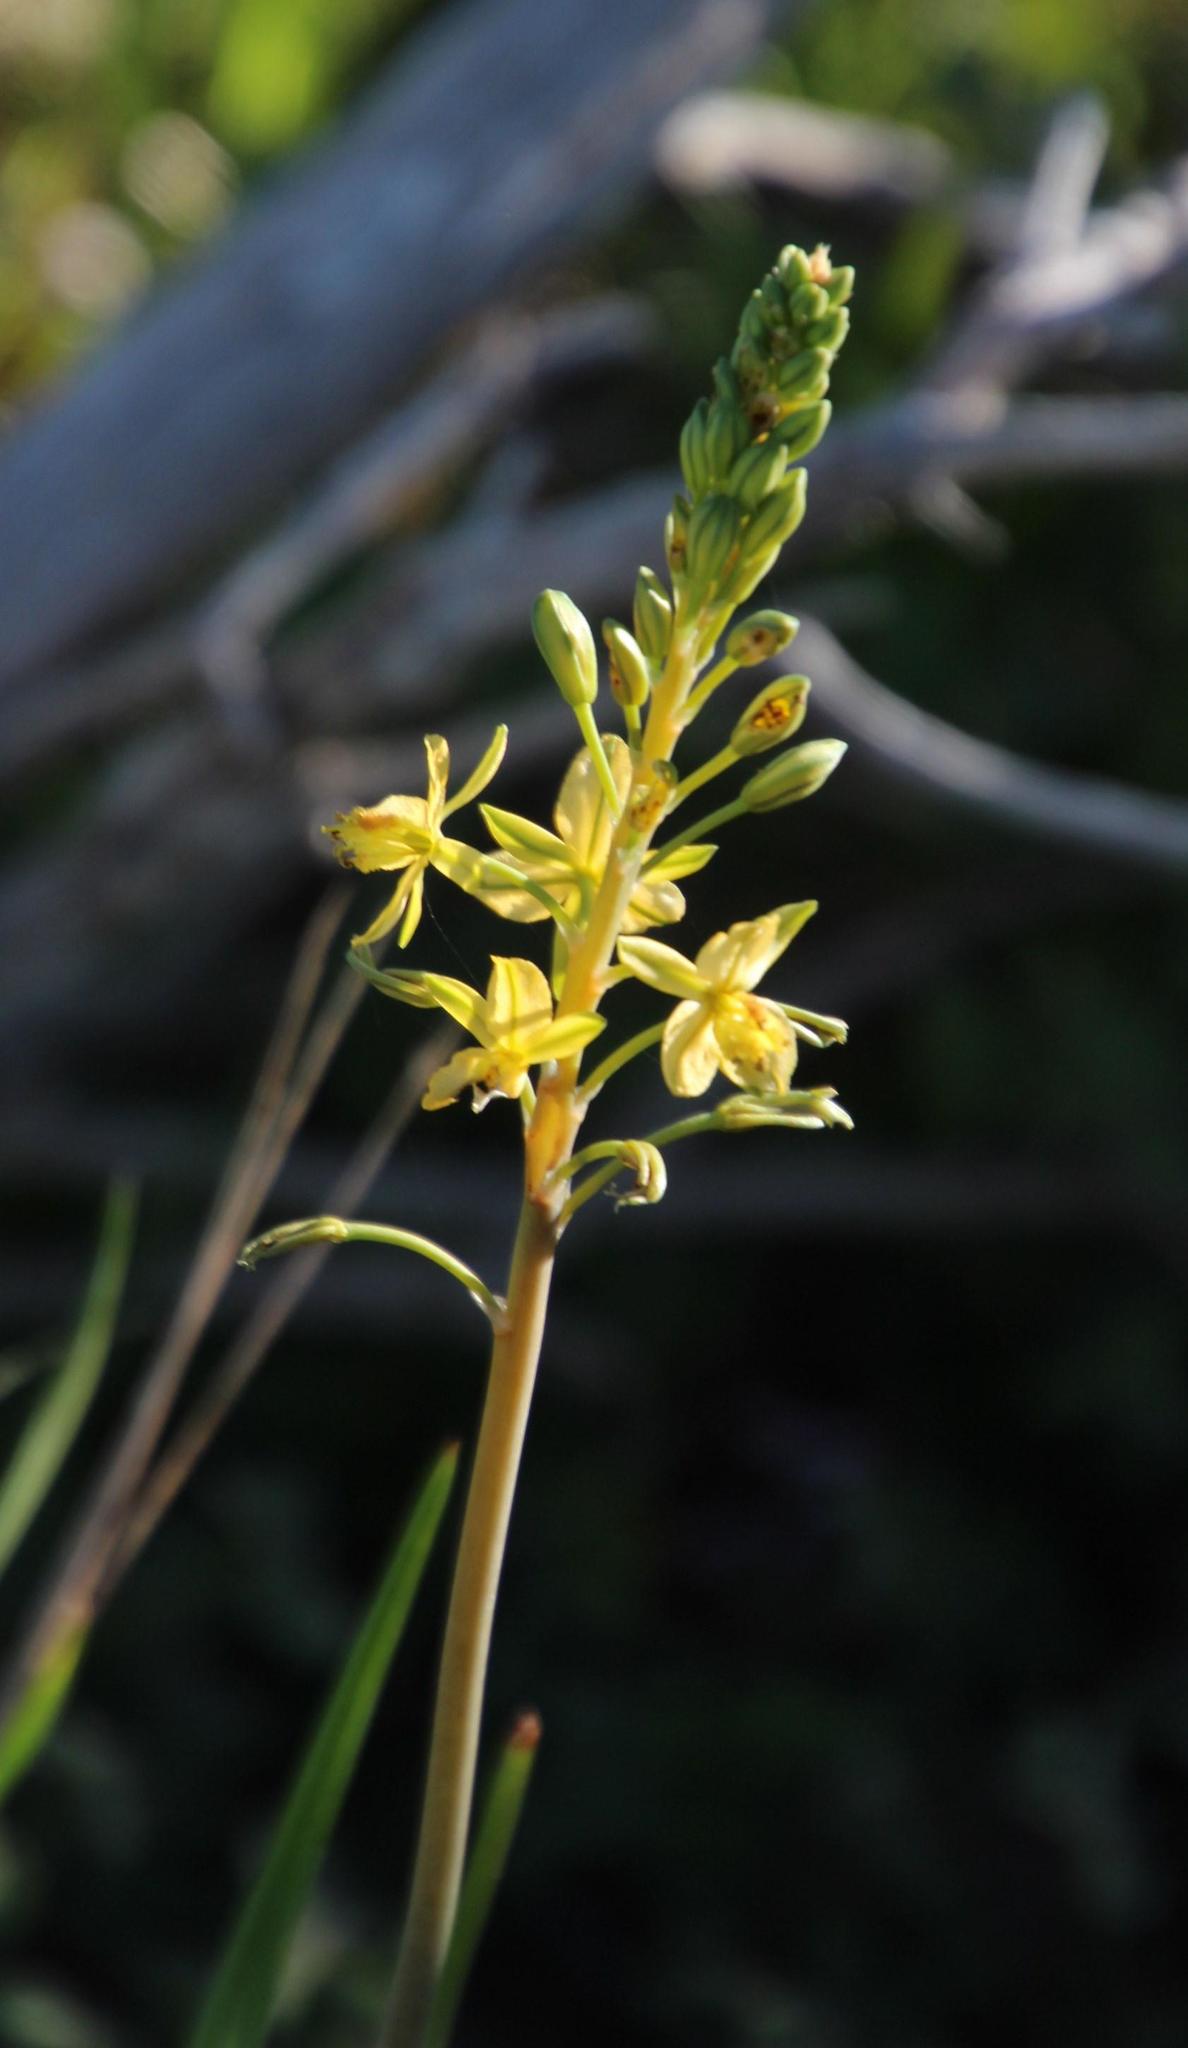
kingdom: Plantae
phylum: Tracheophyta
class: Liliopsida
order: Asparagales
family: Asphodelaceae
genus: Bulbine
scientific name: Bulbine praemorsa
